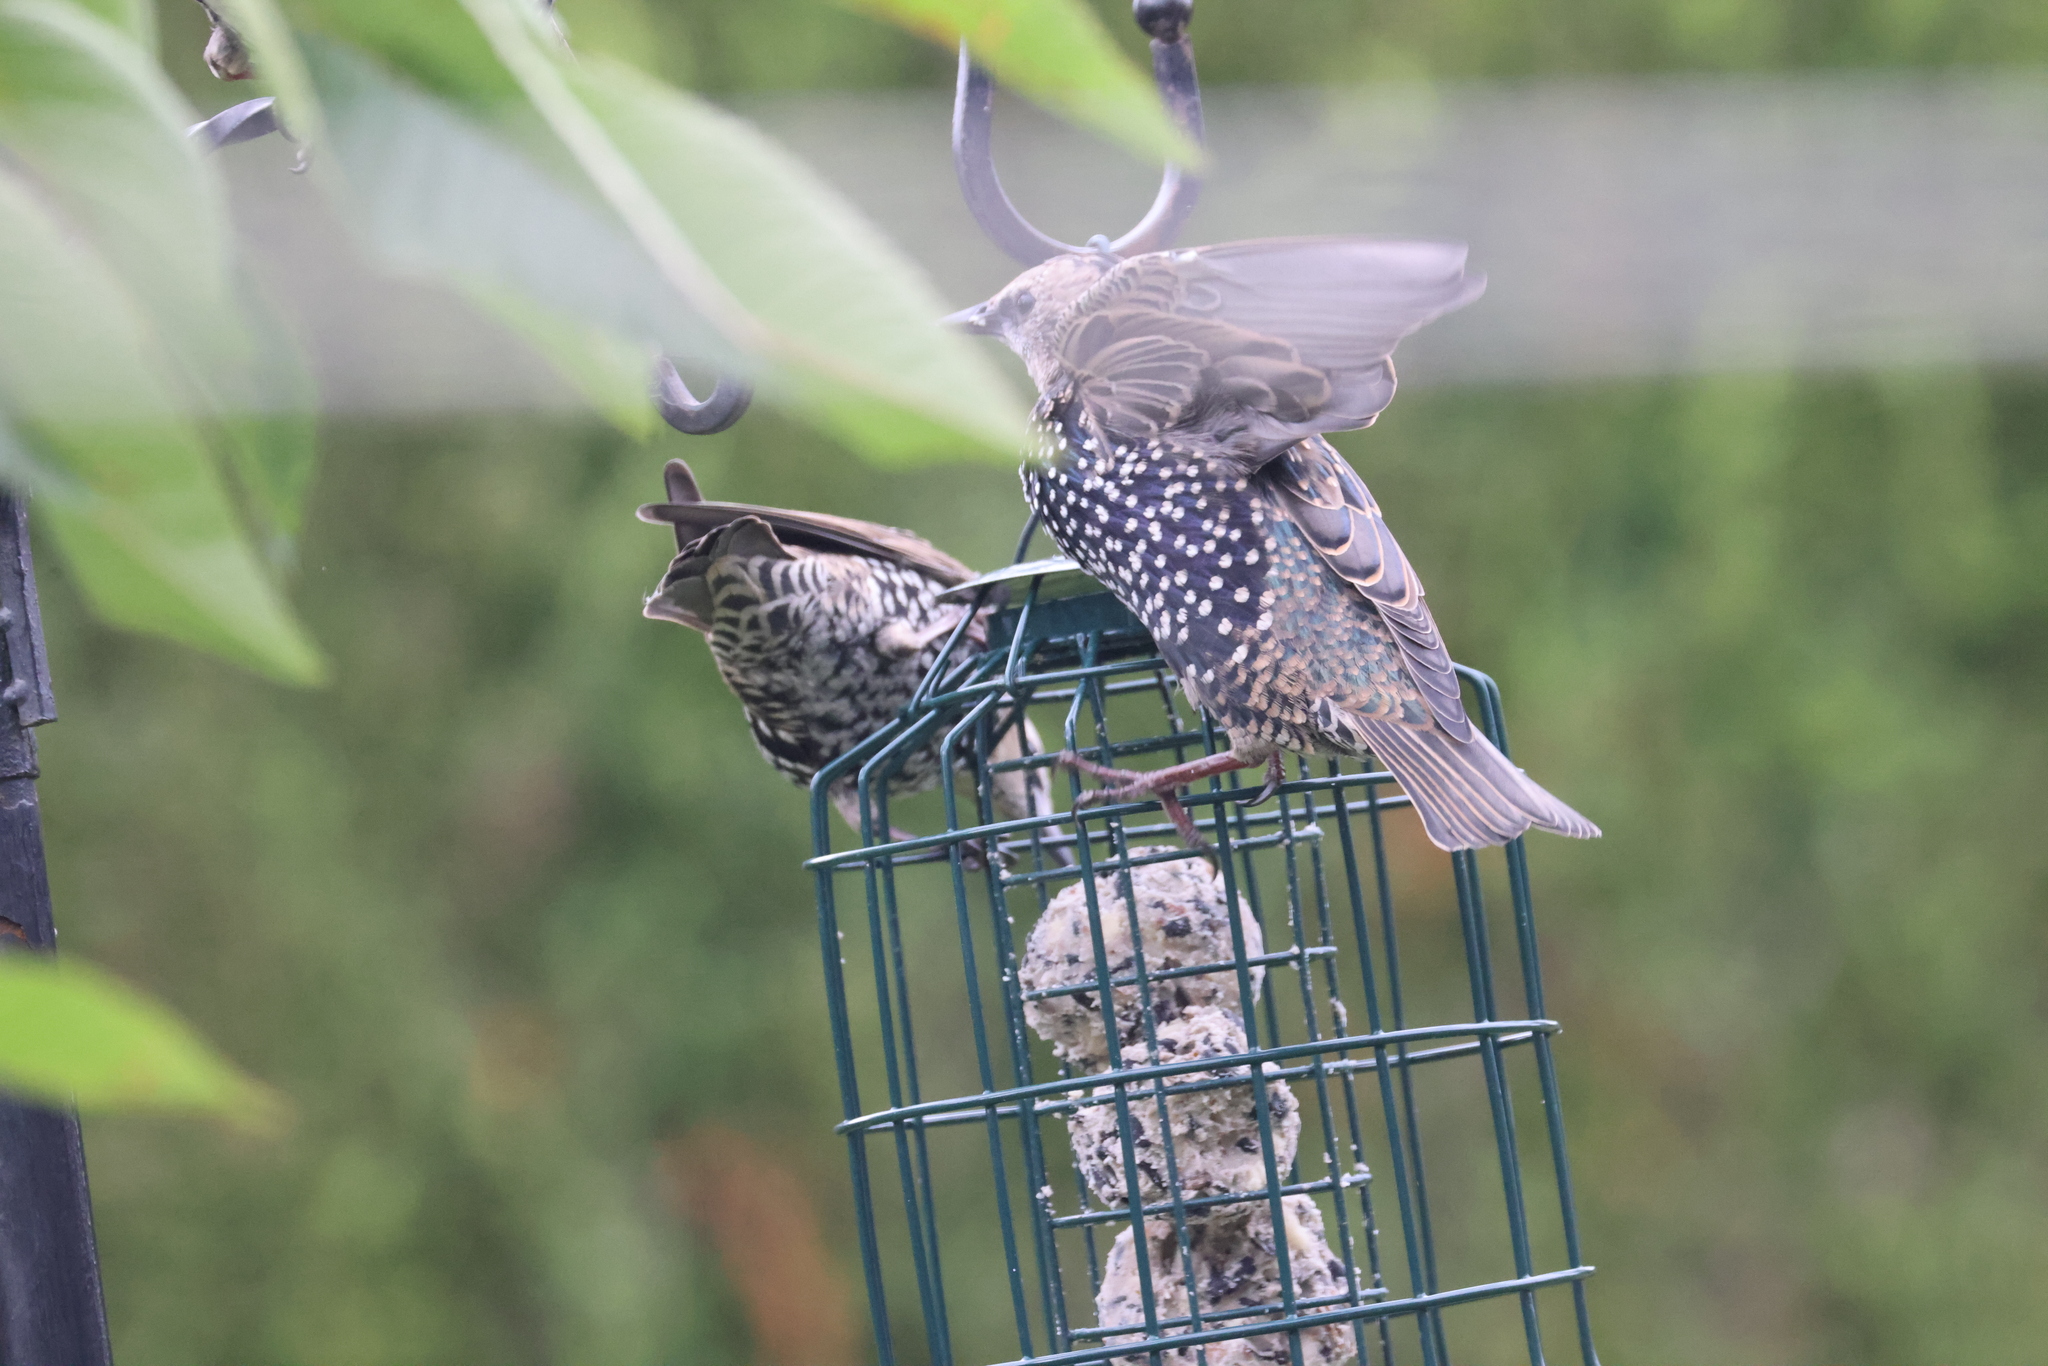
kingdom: Animalia
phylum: Chordata
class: Aves
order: Passeriformes
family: Sturnidae
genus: Sturnus
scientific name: Sturnus vulgaris
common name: Common starling
